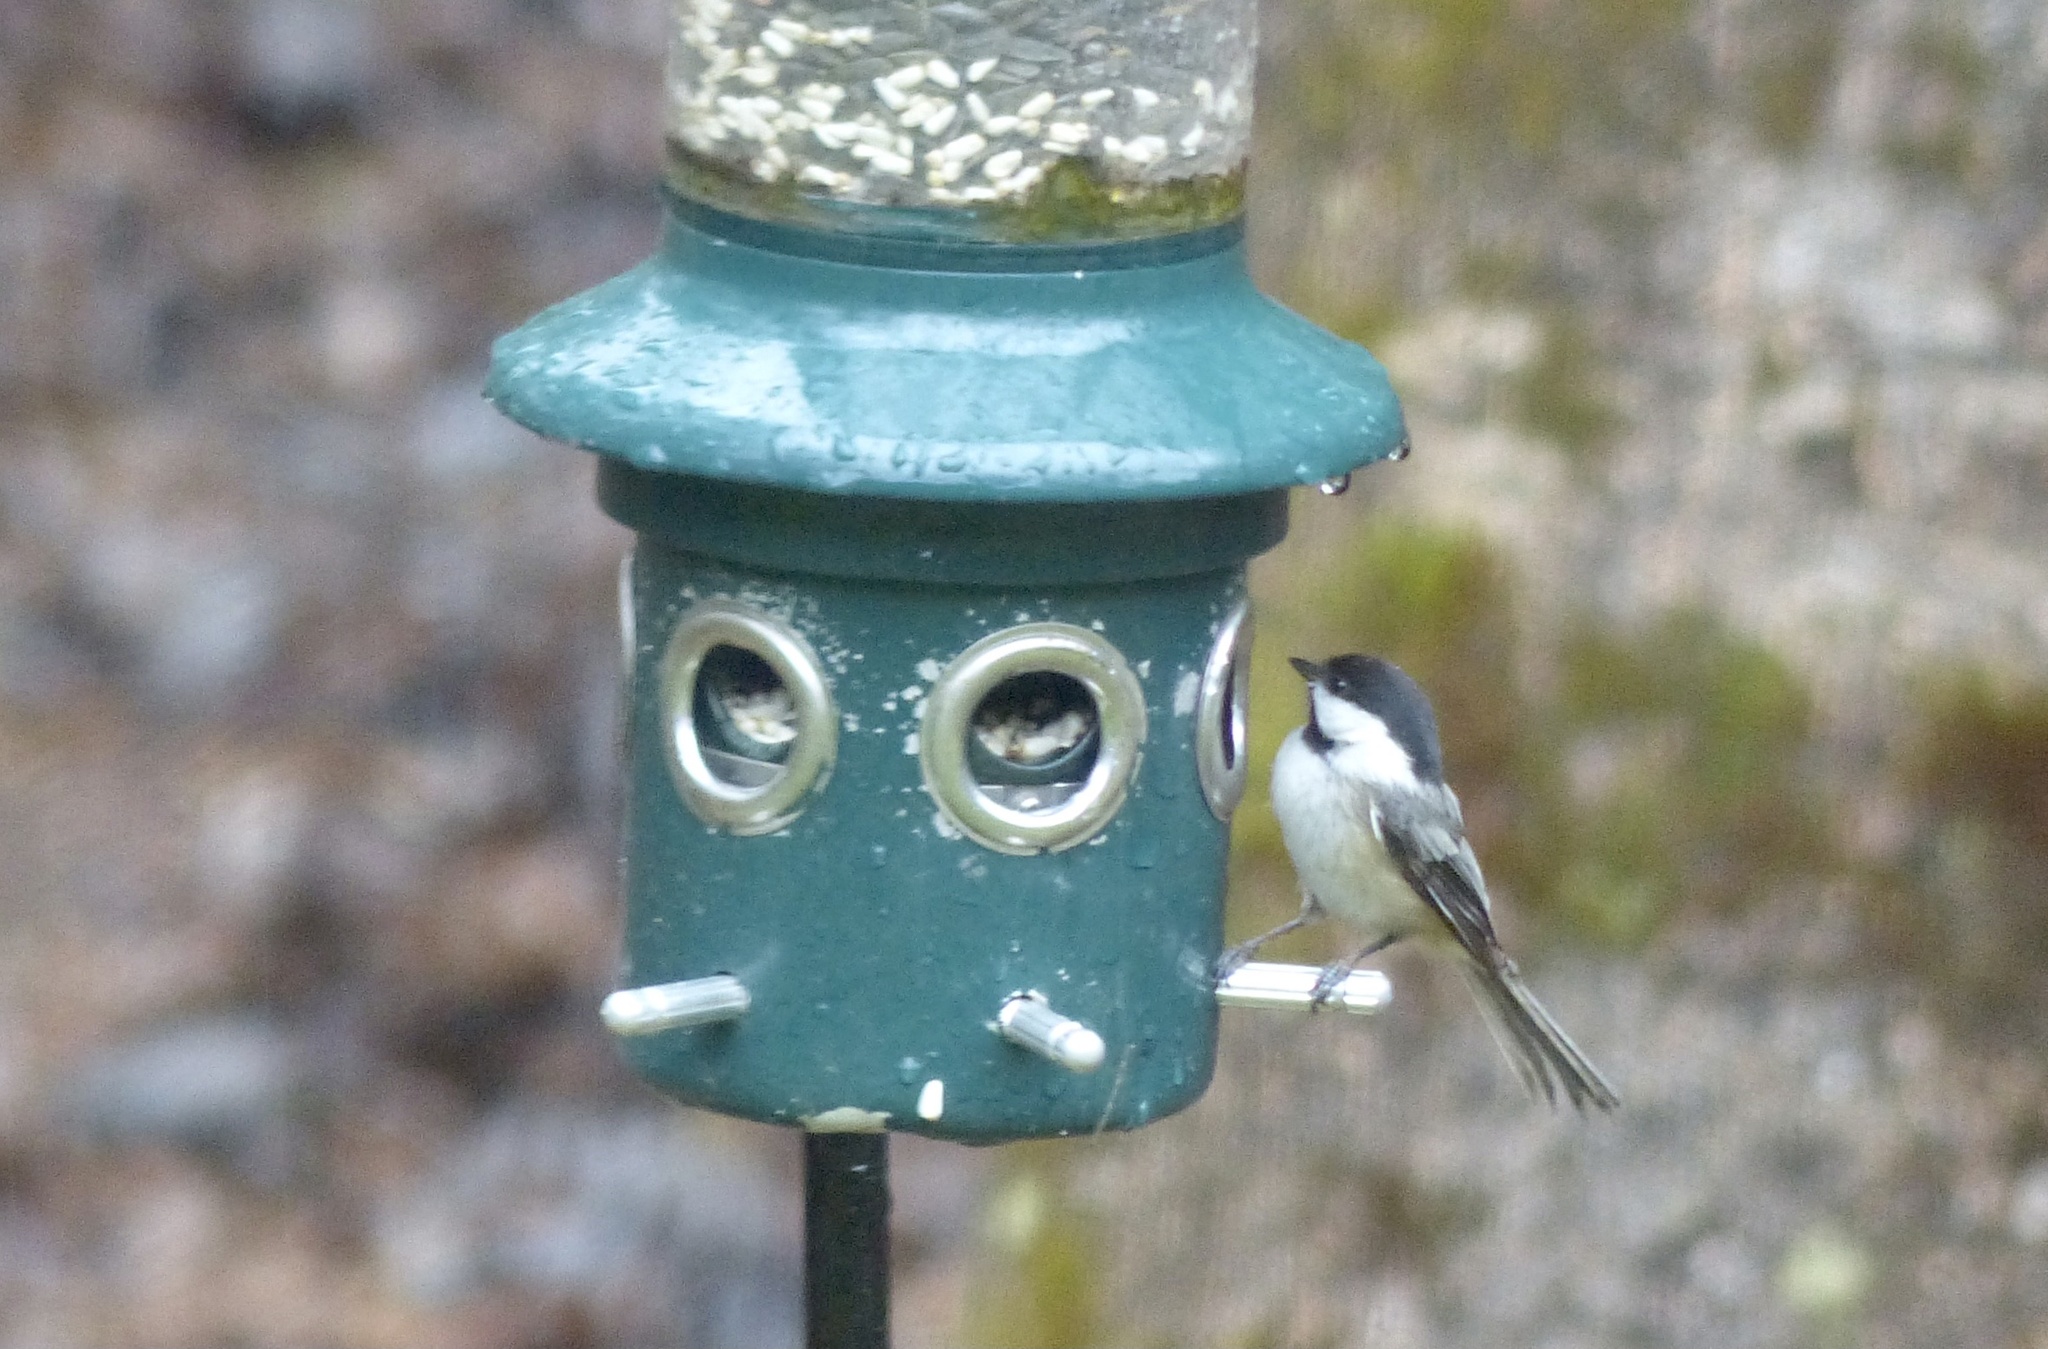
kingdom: Animalia
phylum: Chordata
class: Aves
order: Passeriformes
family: Paridae
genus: Poecile
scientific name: Poecile atricapillus
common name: Black-capped chickadee
